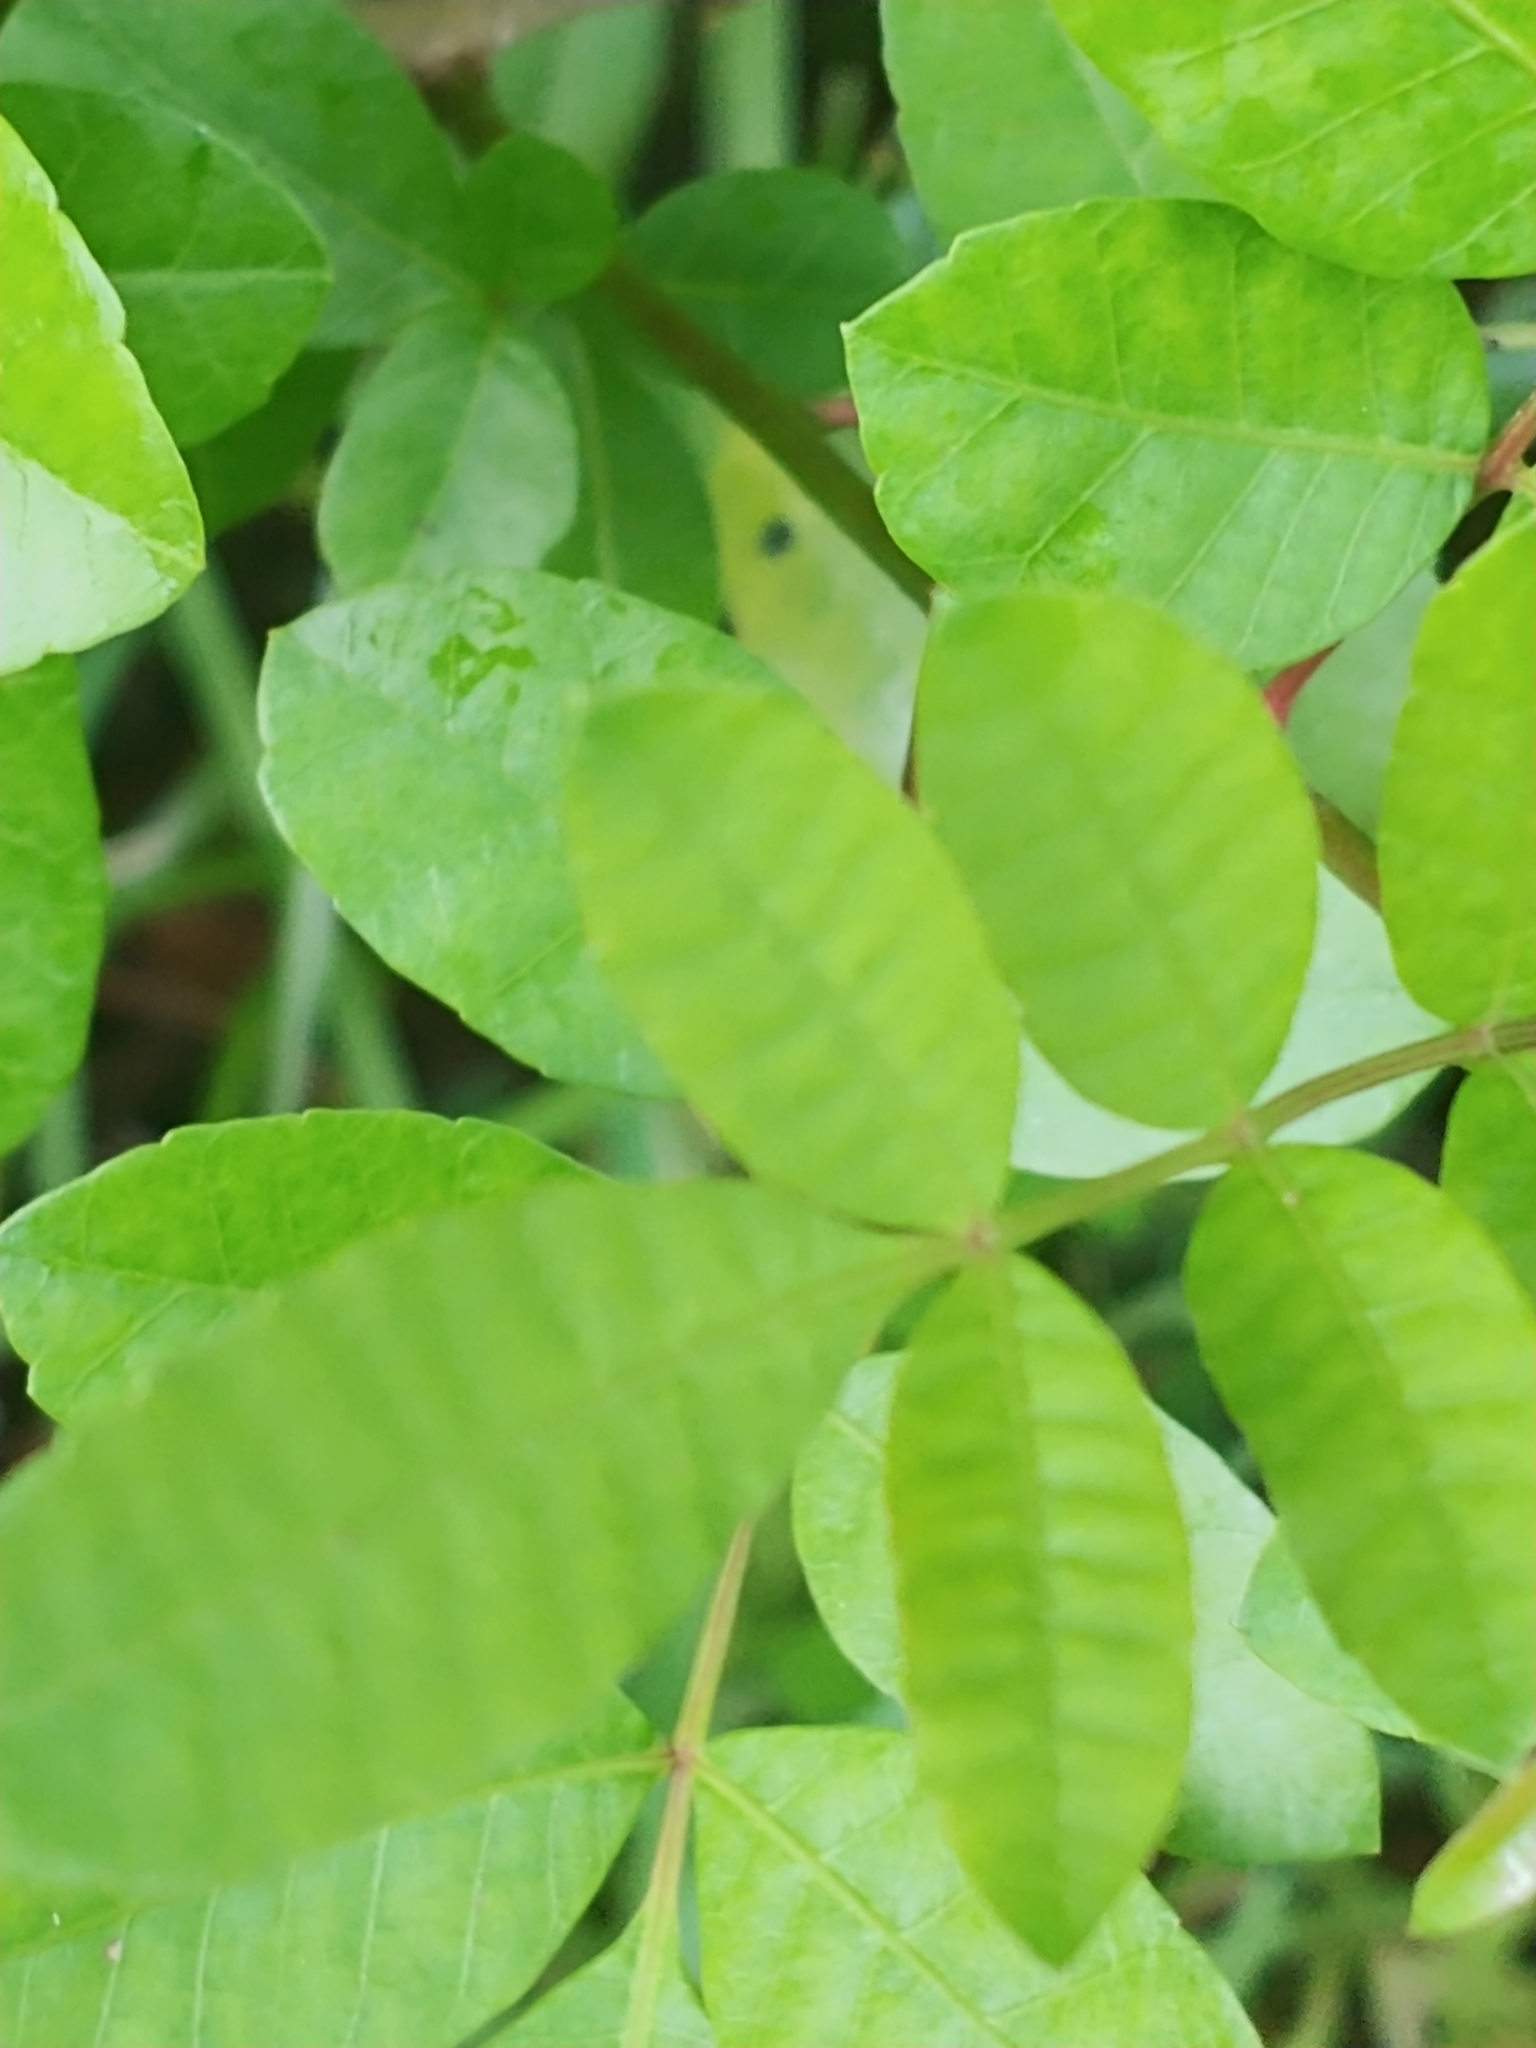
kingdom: Plantae
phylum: Tracheophyta
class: Magnoliopsida
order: Sapindales
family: Anacardiaceae
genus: Schinus
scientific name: Schinus terebinthifolia
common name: Brazilian peppertree
